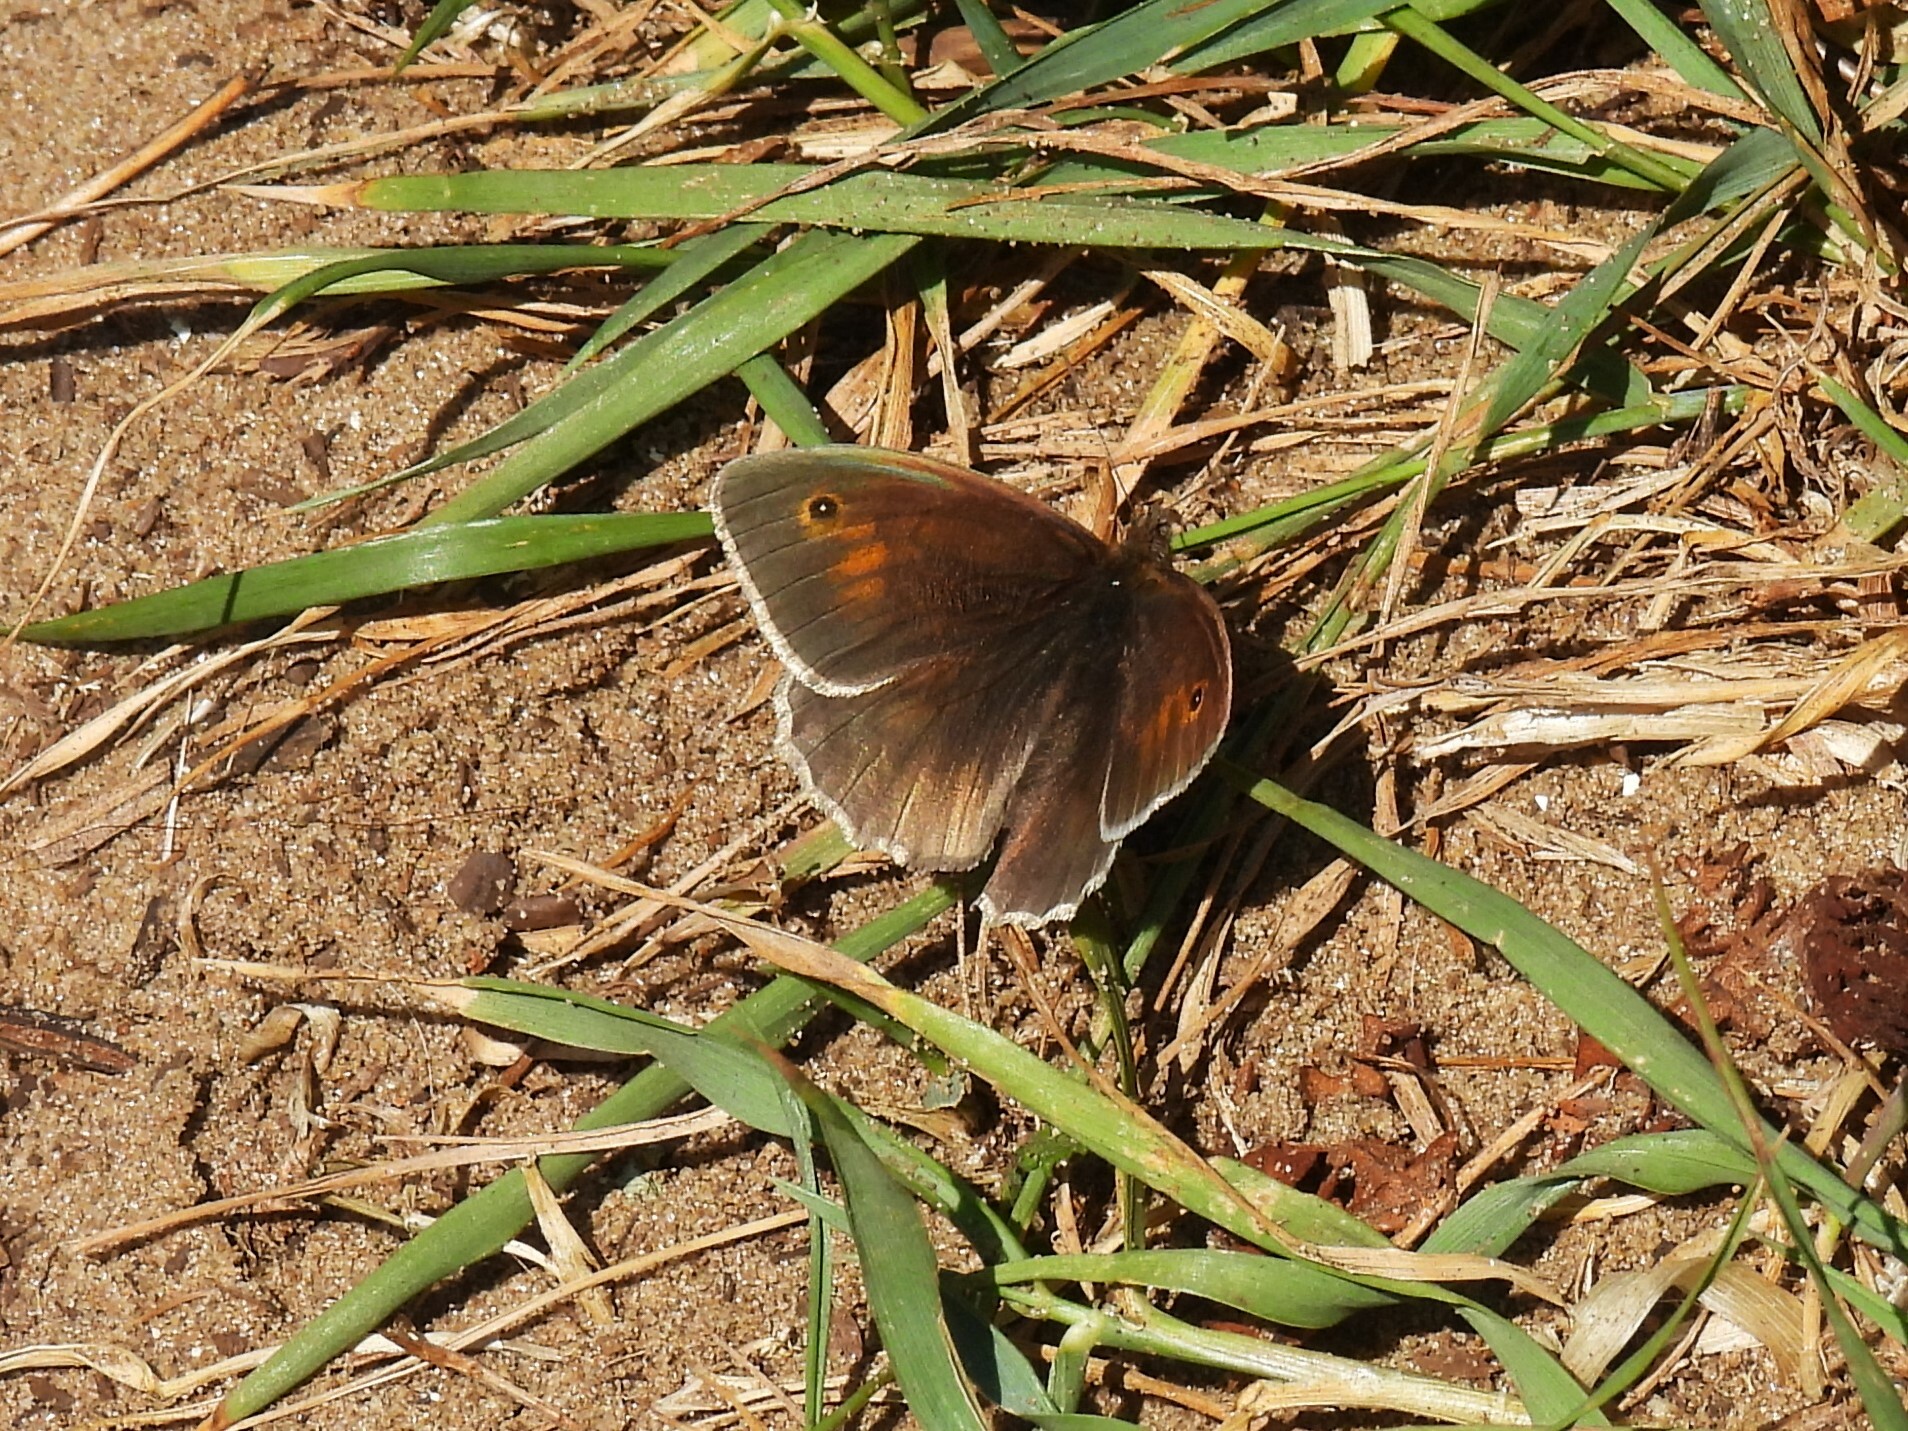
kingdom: Animalia
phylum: Arthropoda
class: Insecta
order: Lepidoptera
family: Nymphalidae
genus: Maniola
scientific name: Maniola jurtina
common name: Meadow brown
